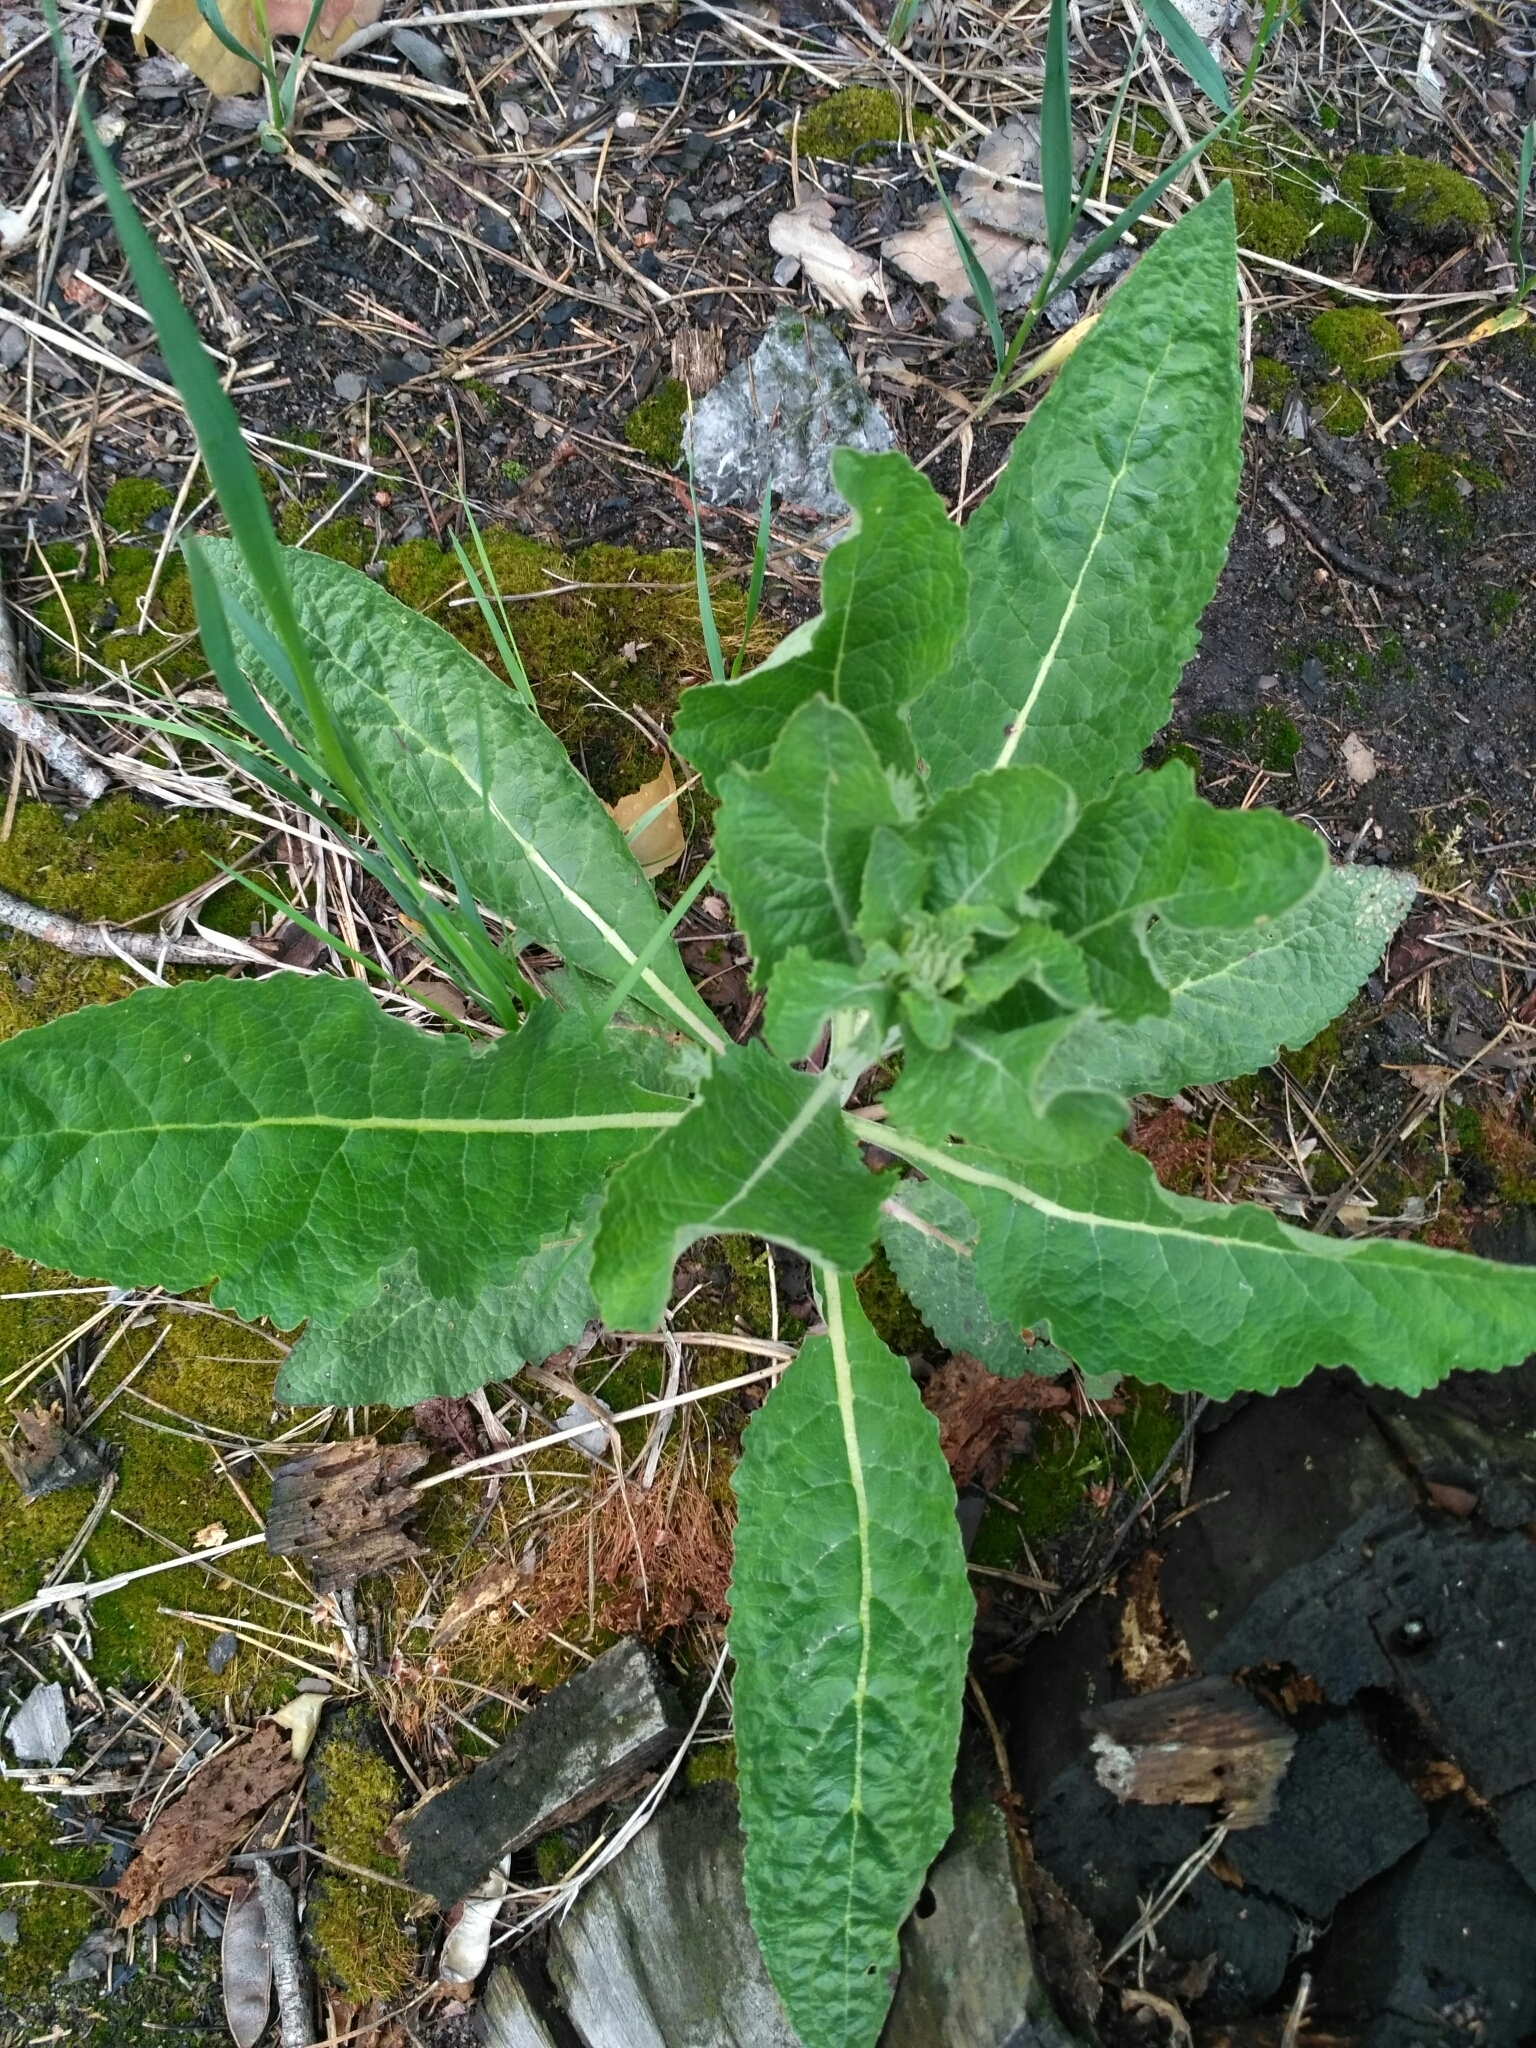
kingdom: Plantae
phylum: Tracheophyta
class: Magnoliopsida
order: Lamiales
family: Scrophulariaceae
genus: Verbascum
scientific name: Verbascum lychnitis
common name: White mullein
